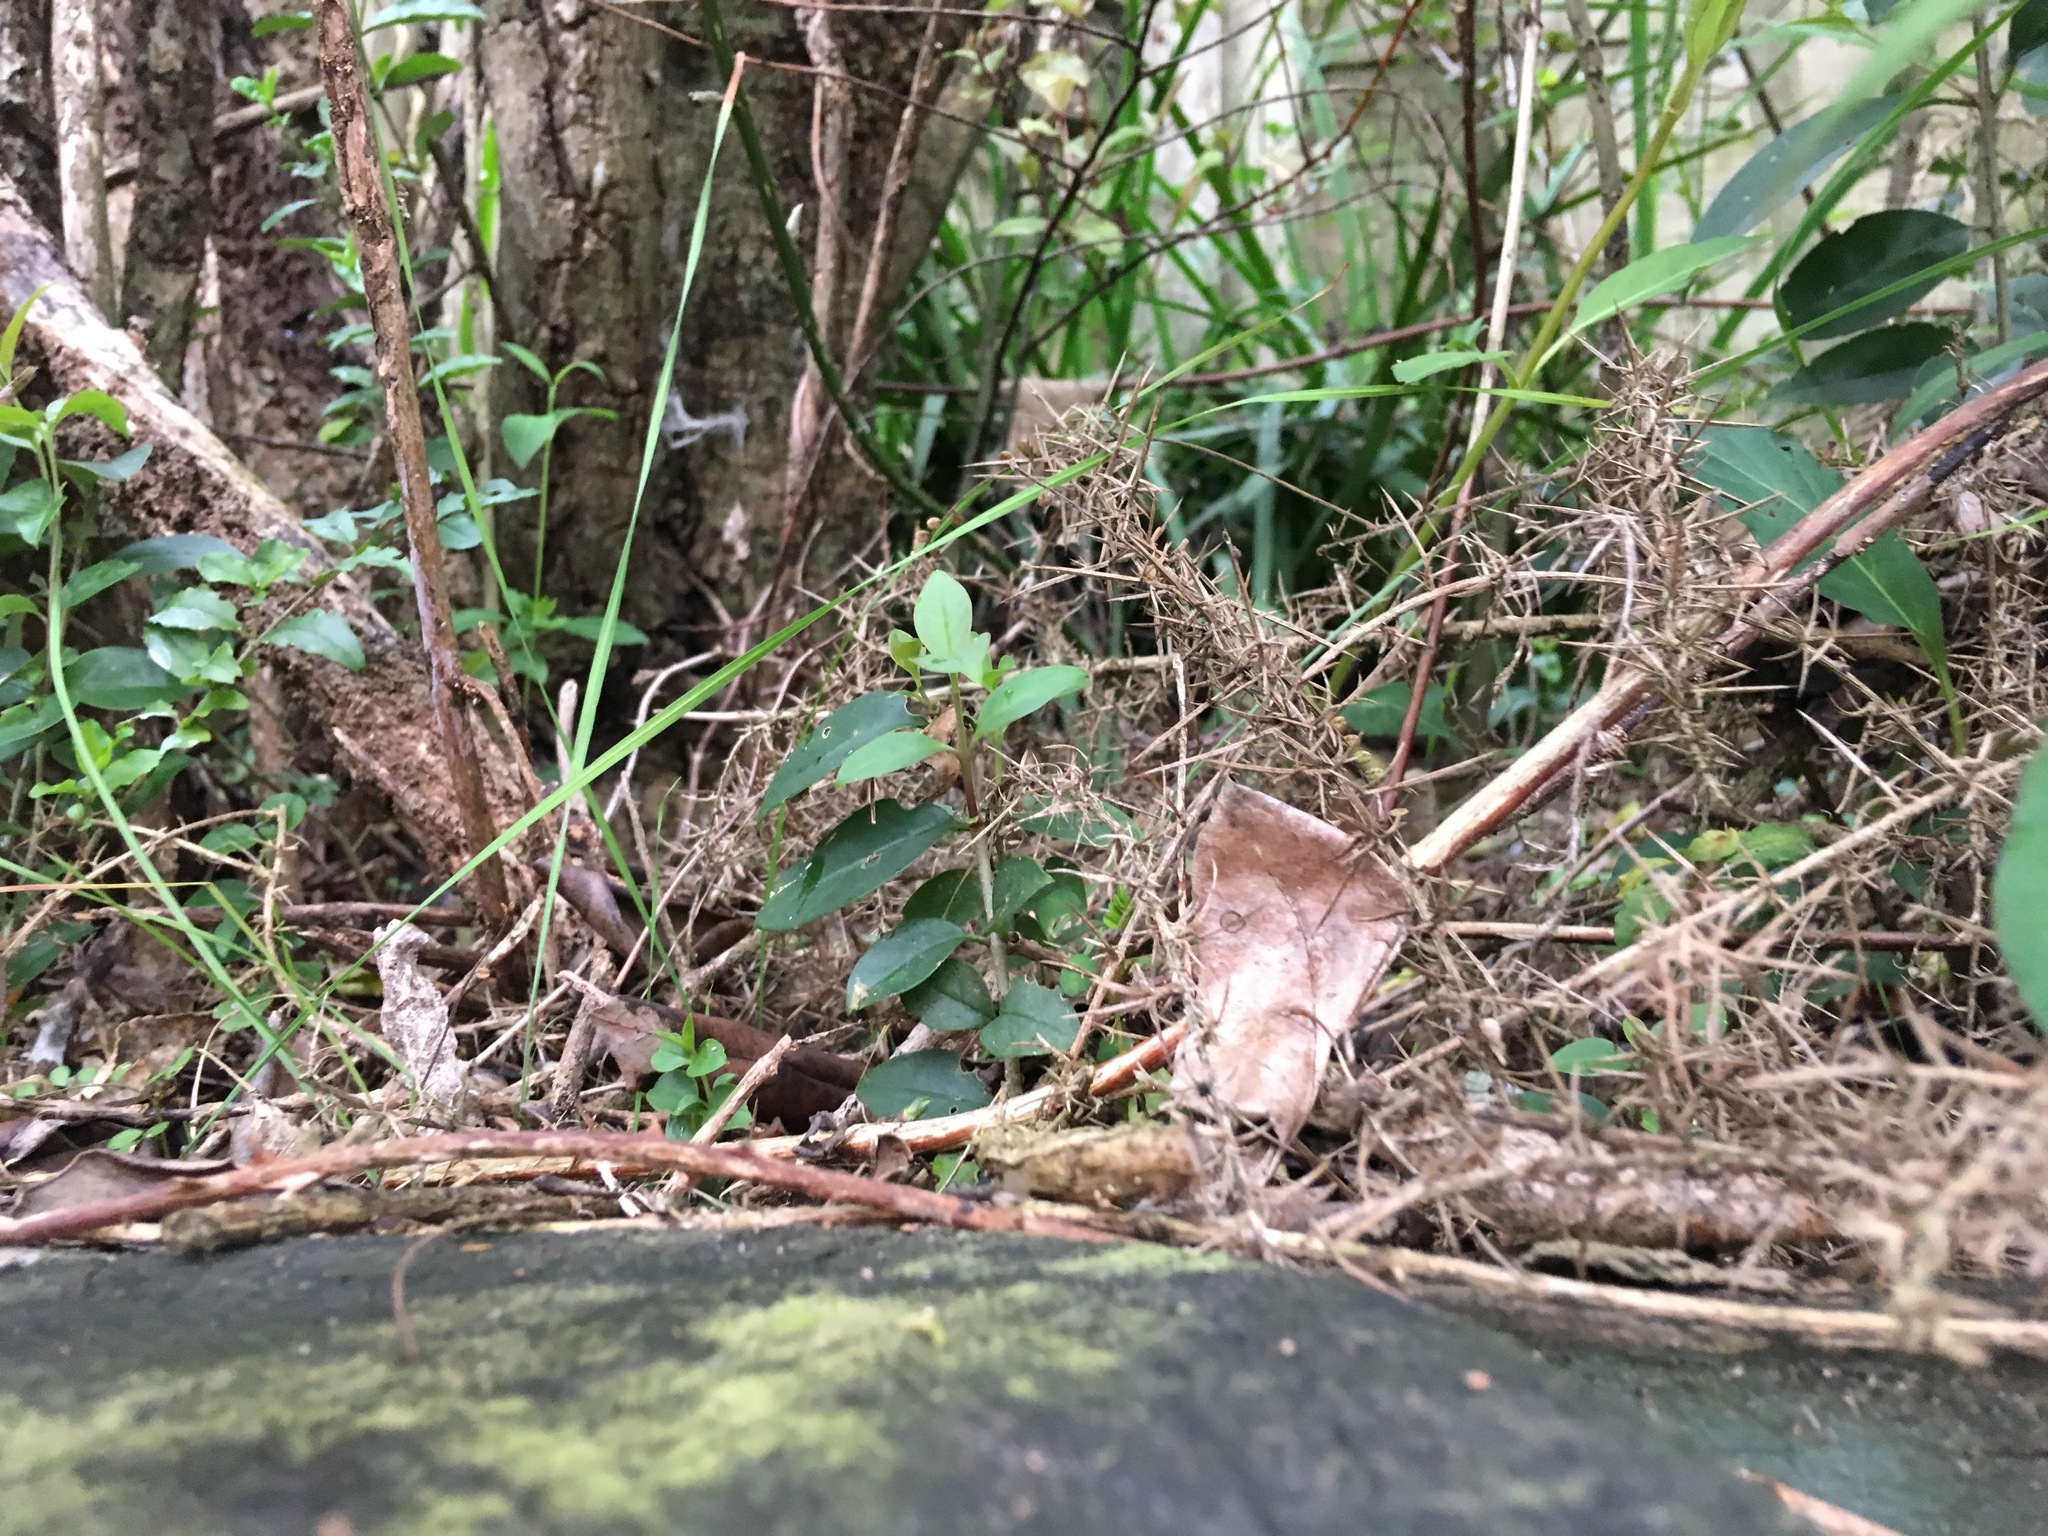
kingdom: Plantae
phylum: Tracheophyta
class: Magnoliopsida
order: Lamiales
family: Oleaceae
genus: Ligustrum
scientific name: Ligustrum lucidum
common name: Glossy privet
